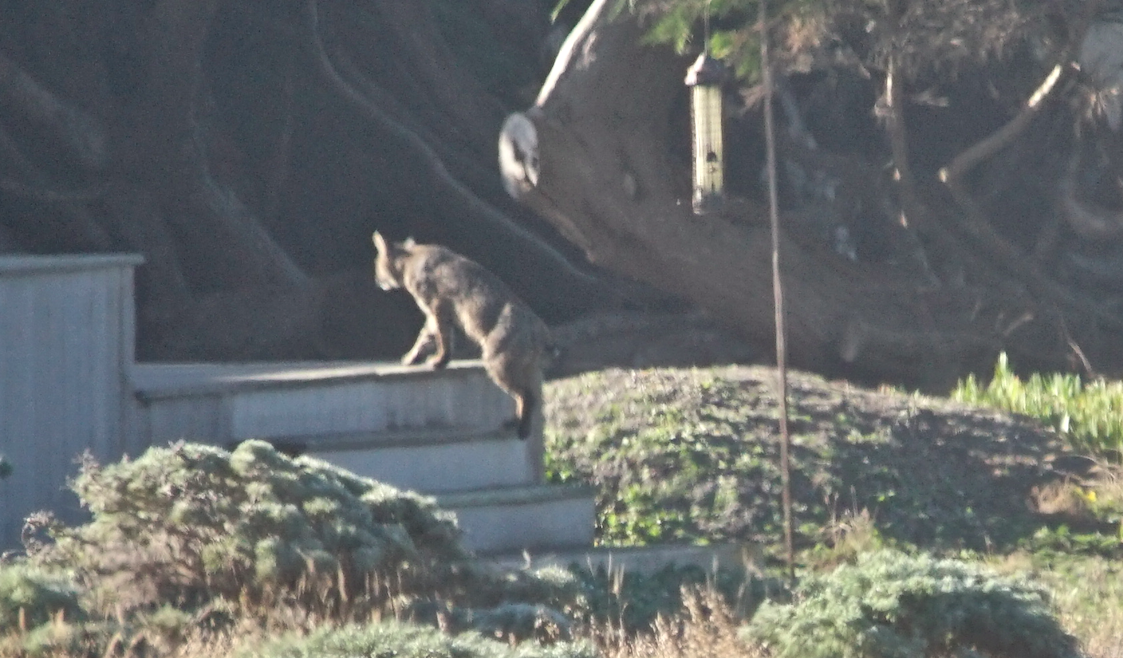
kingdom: Animalia
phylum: Chordata
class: Mammalia
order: Carnivora
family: Felidae
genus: Lynx
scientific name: Lynx rufus
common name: Bobcat
